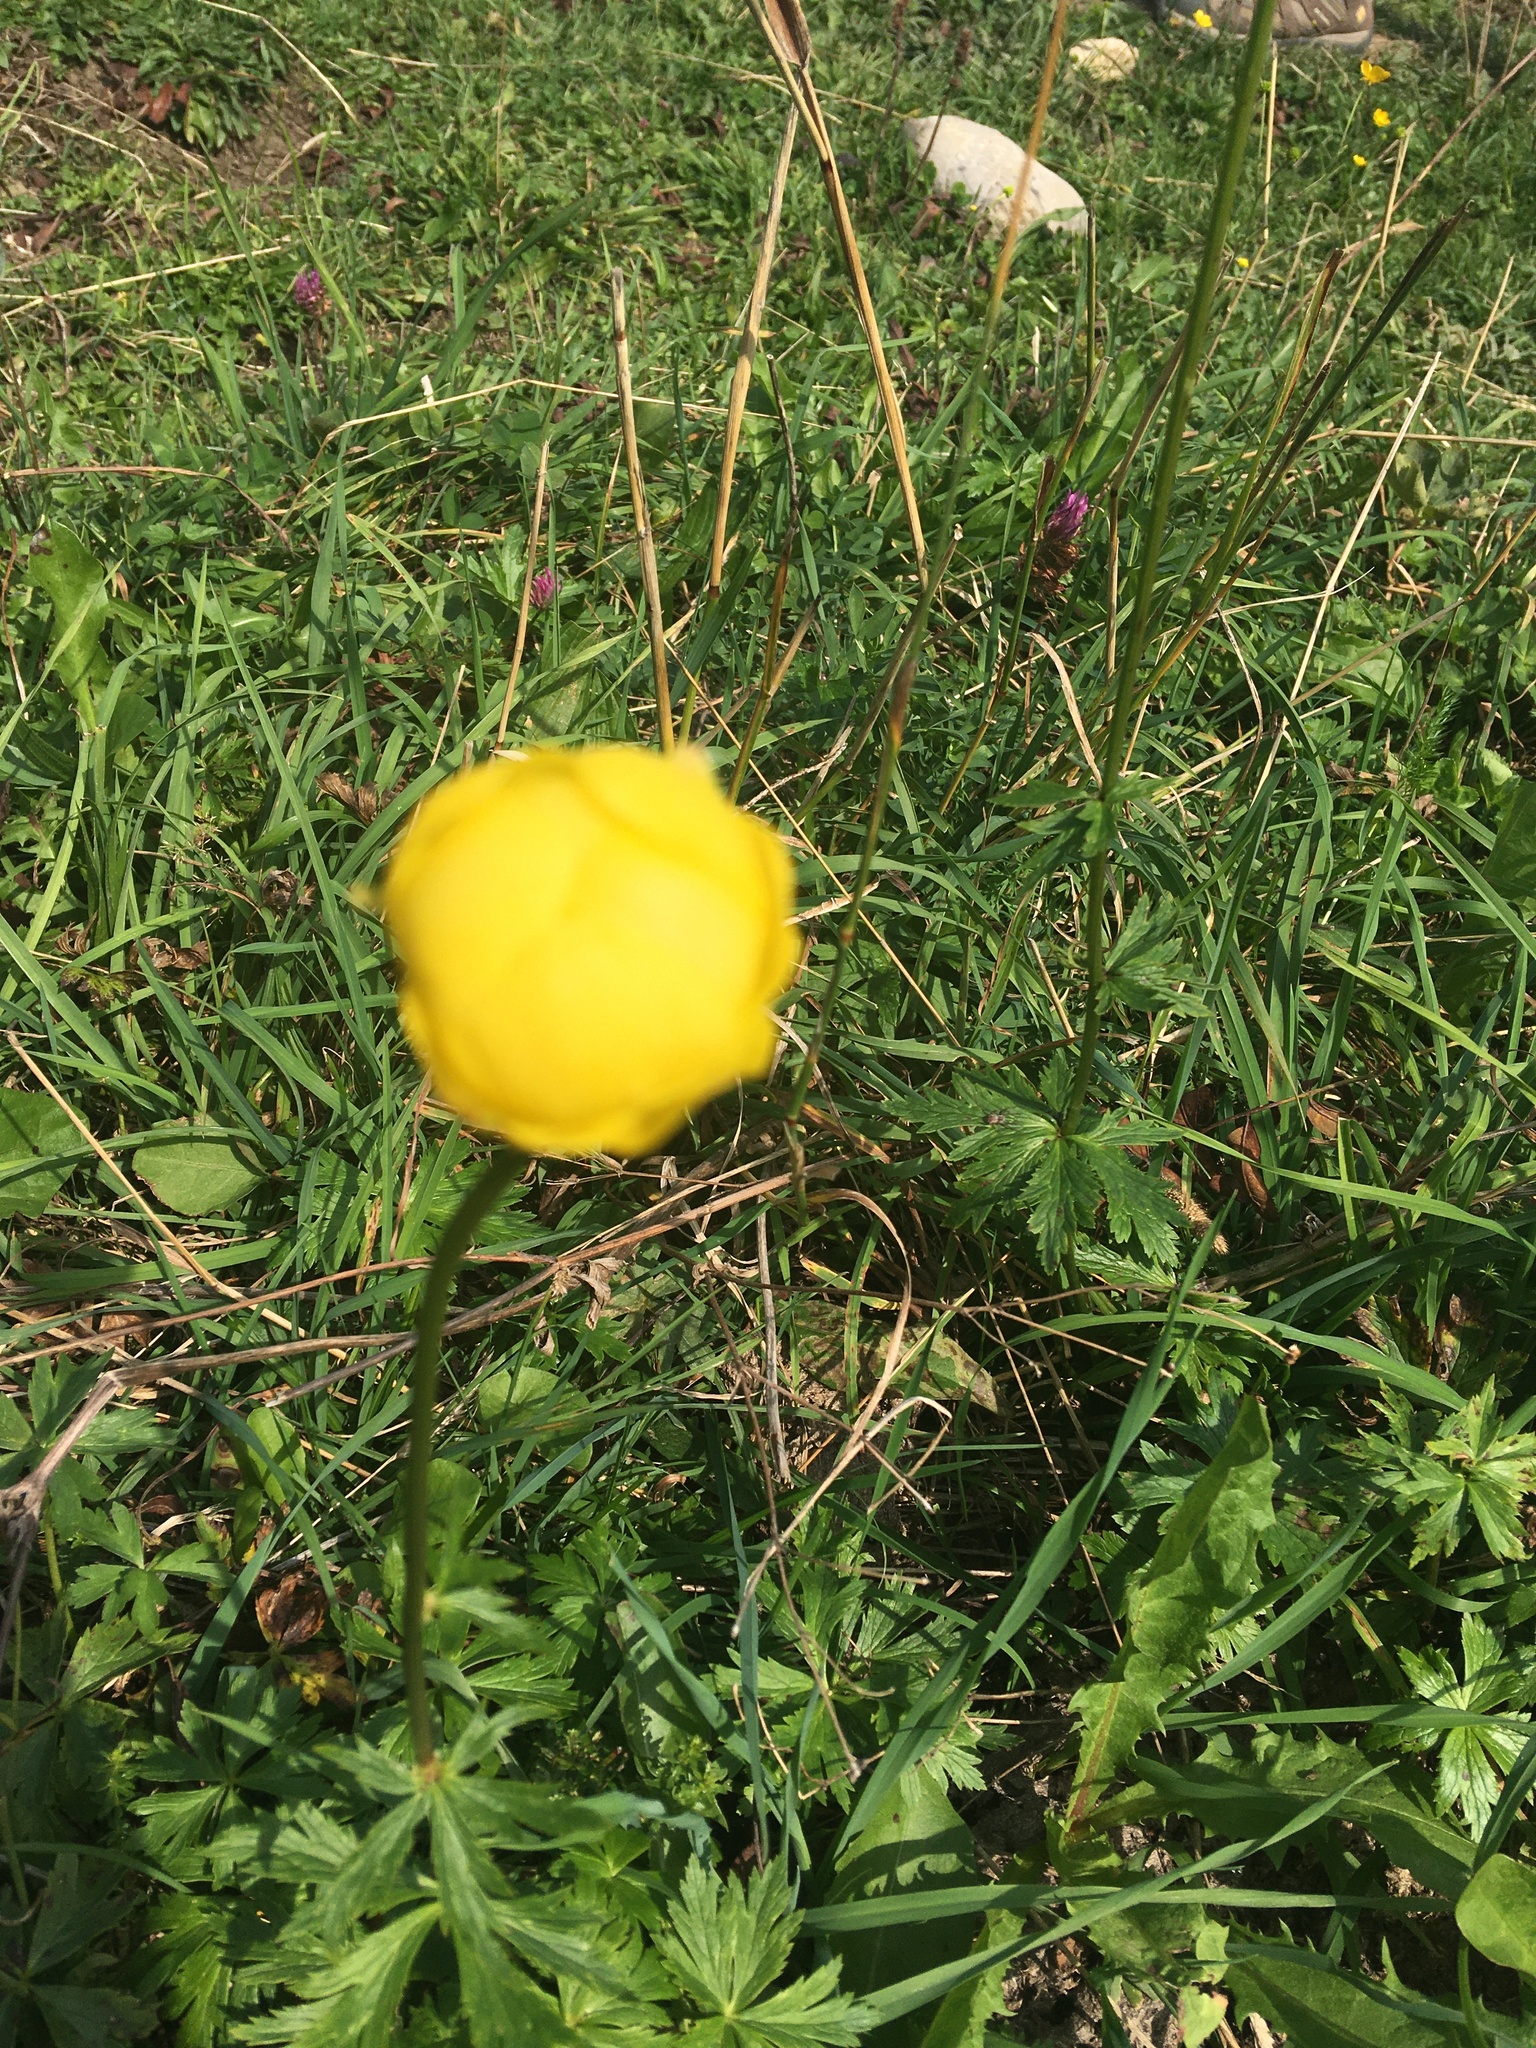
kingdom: Plantae
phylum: Tracheophyta
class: Magnoliopsida
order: Ranunculales
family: Ranunculaceae
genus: Trollius
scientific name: Trollius europaeus
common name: European globeflower
